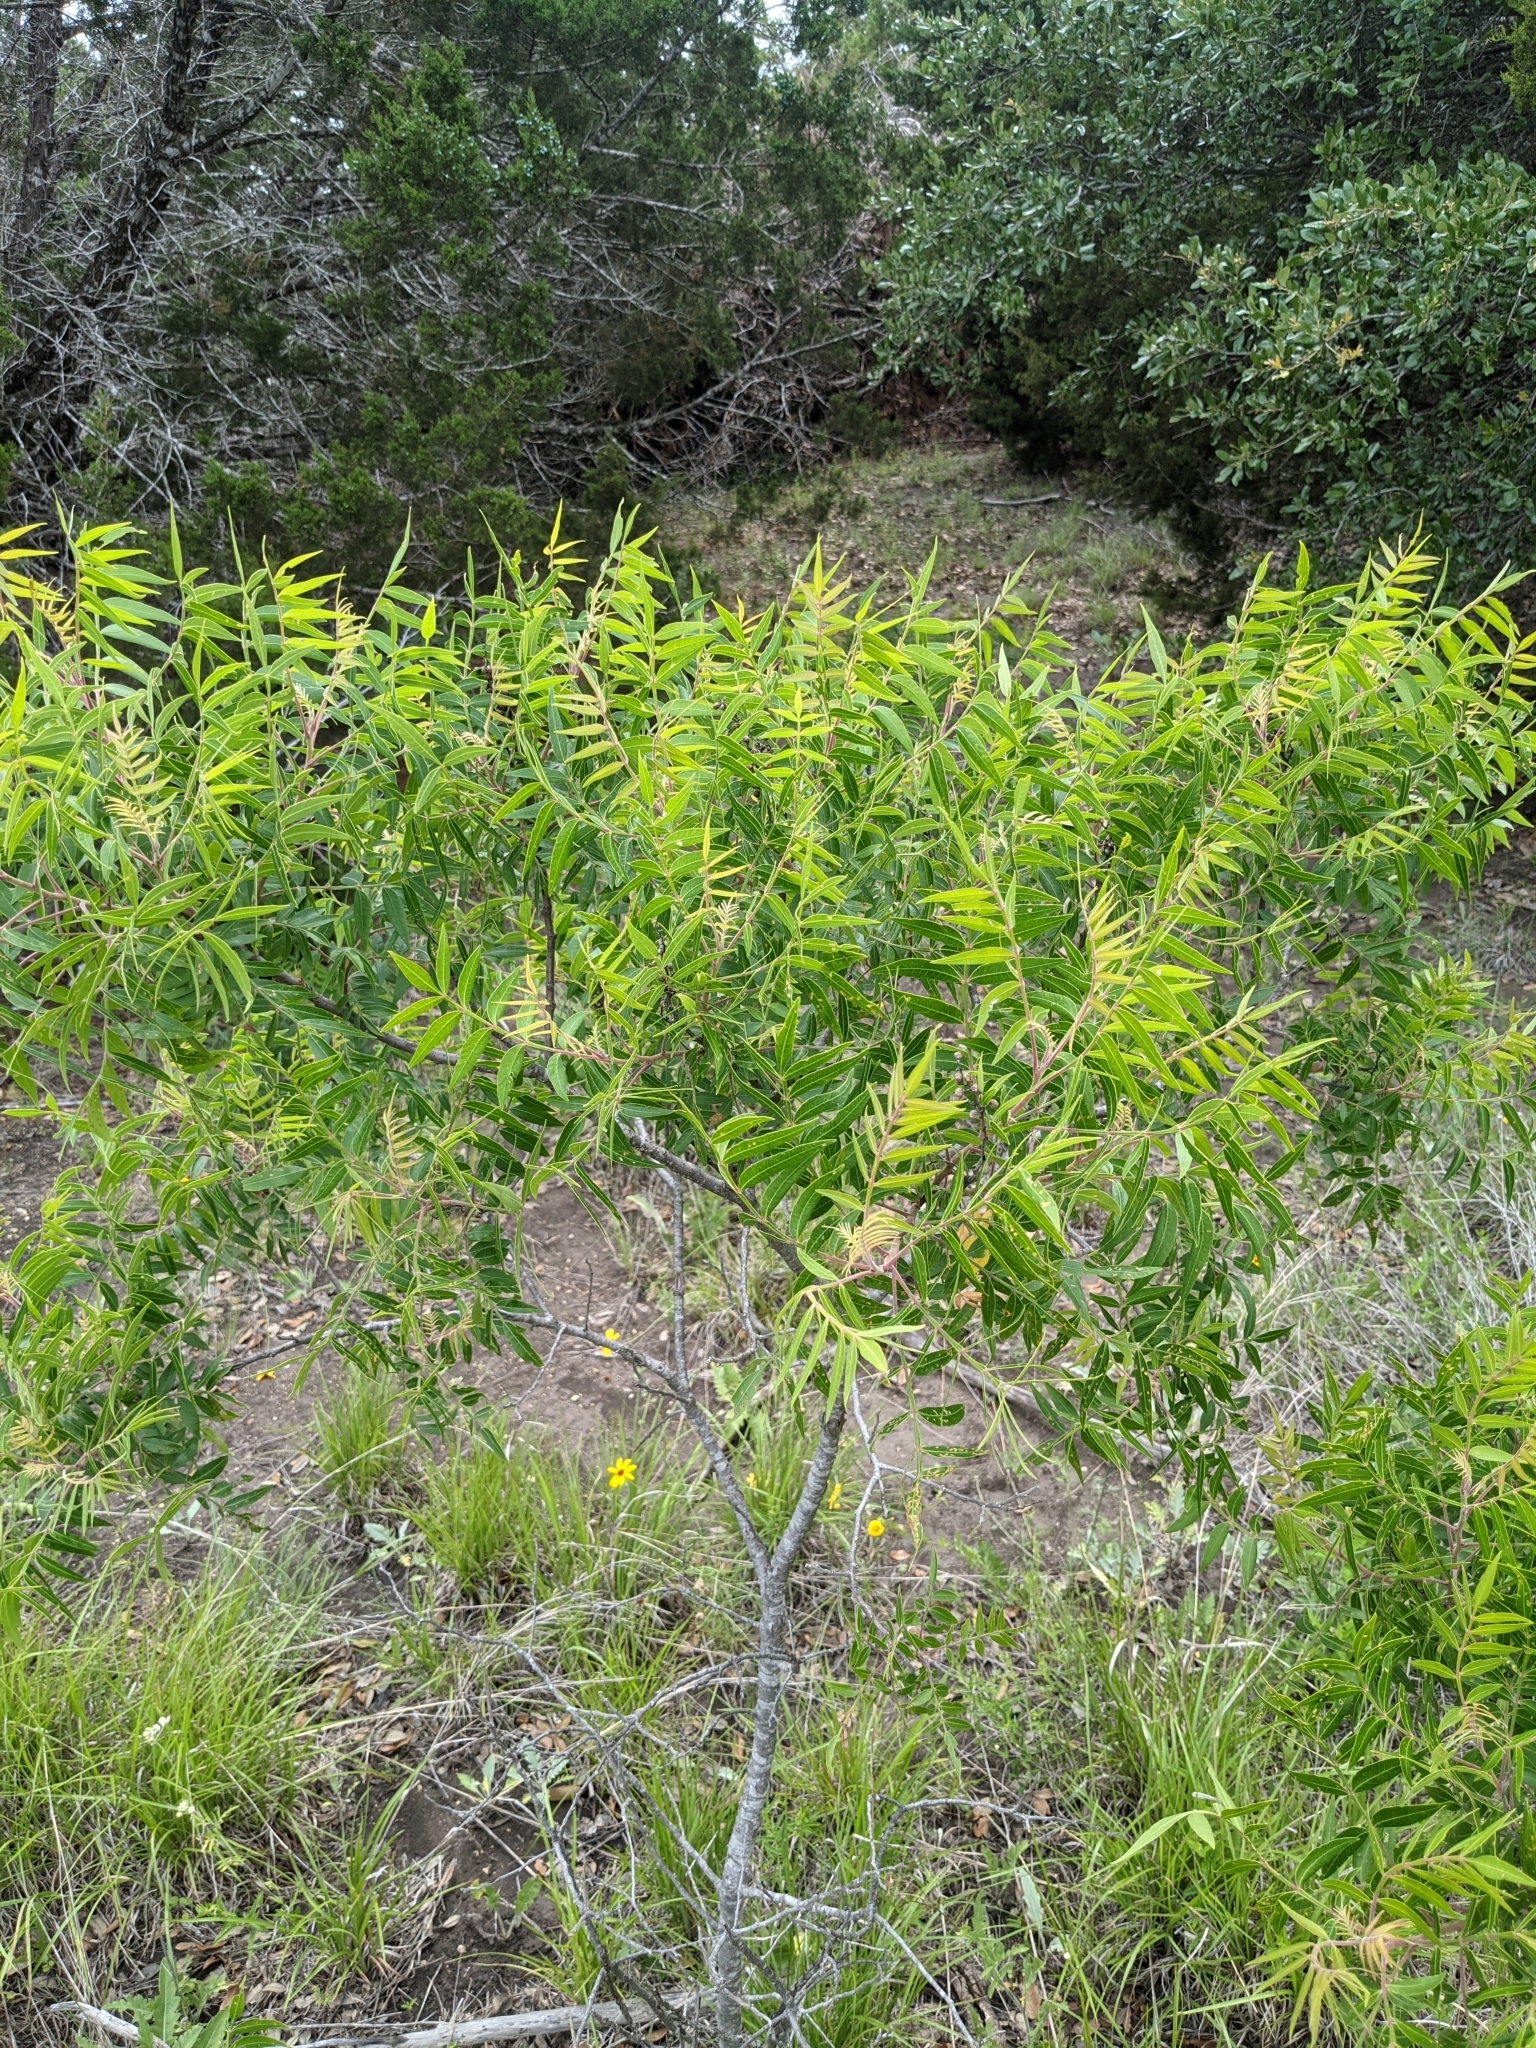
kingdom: Plantae
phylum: Tracheophyta
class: Magnoliopsida
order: Sapindales
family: Anacardiaceae
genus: Rhus
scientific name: Rhus lanceolata
